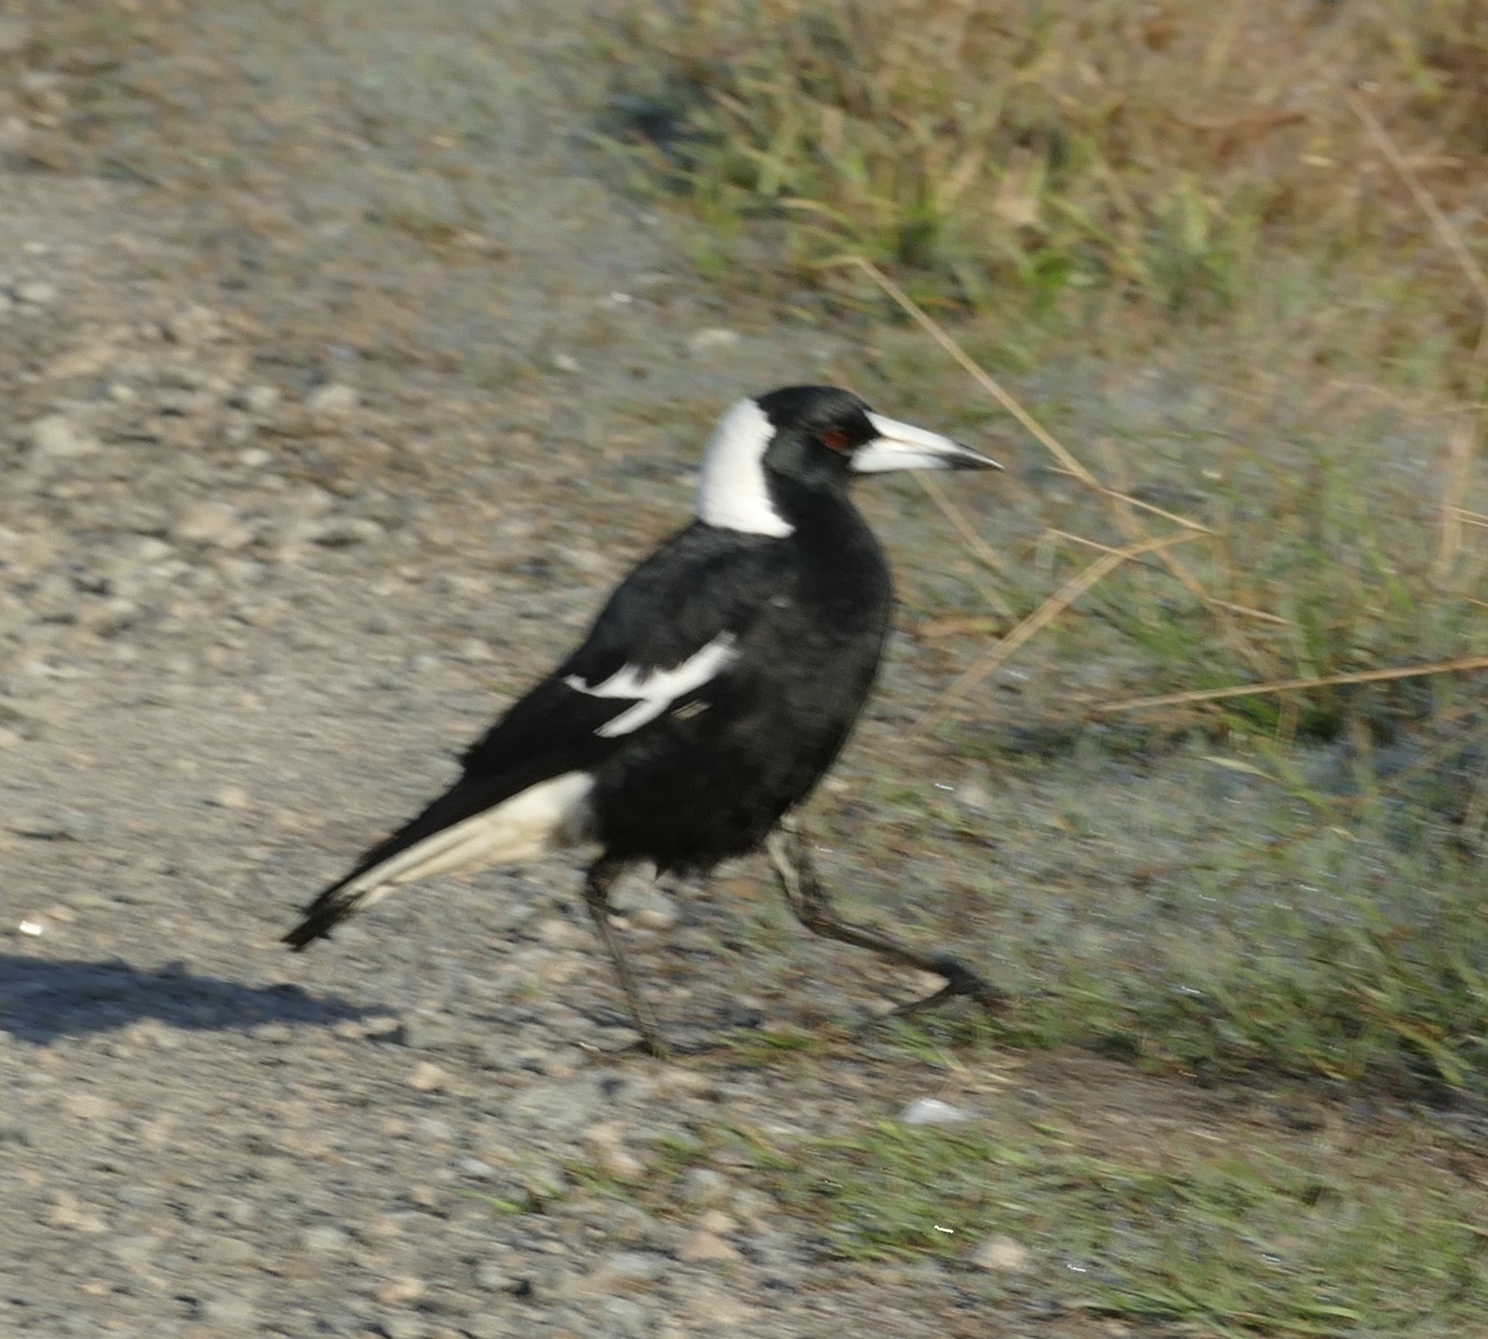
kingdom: Animalia
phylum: Chordata
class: Aves
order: Passeriformes
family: Cracticidae
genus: Gymnorhina
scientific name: Gymnorhina tibicen
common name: Australian magpie
